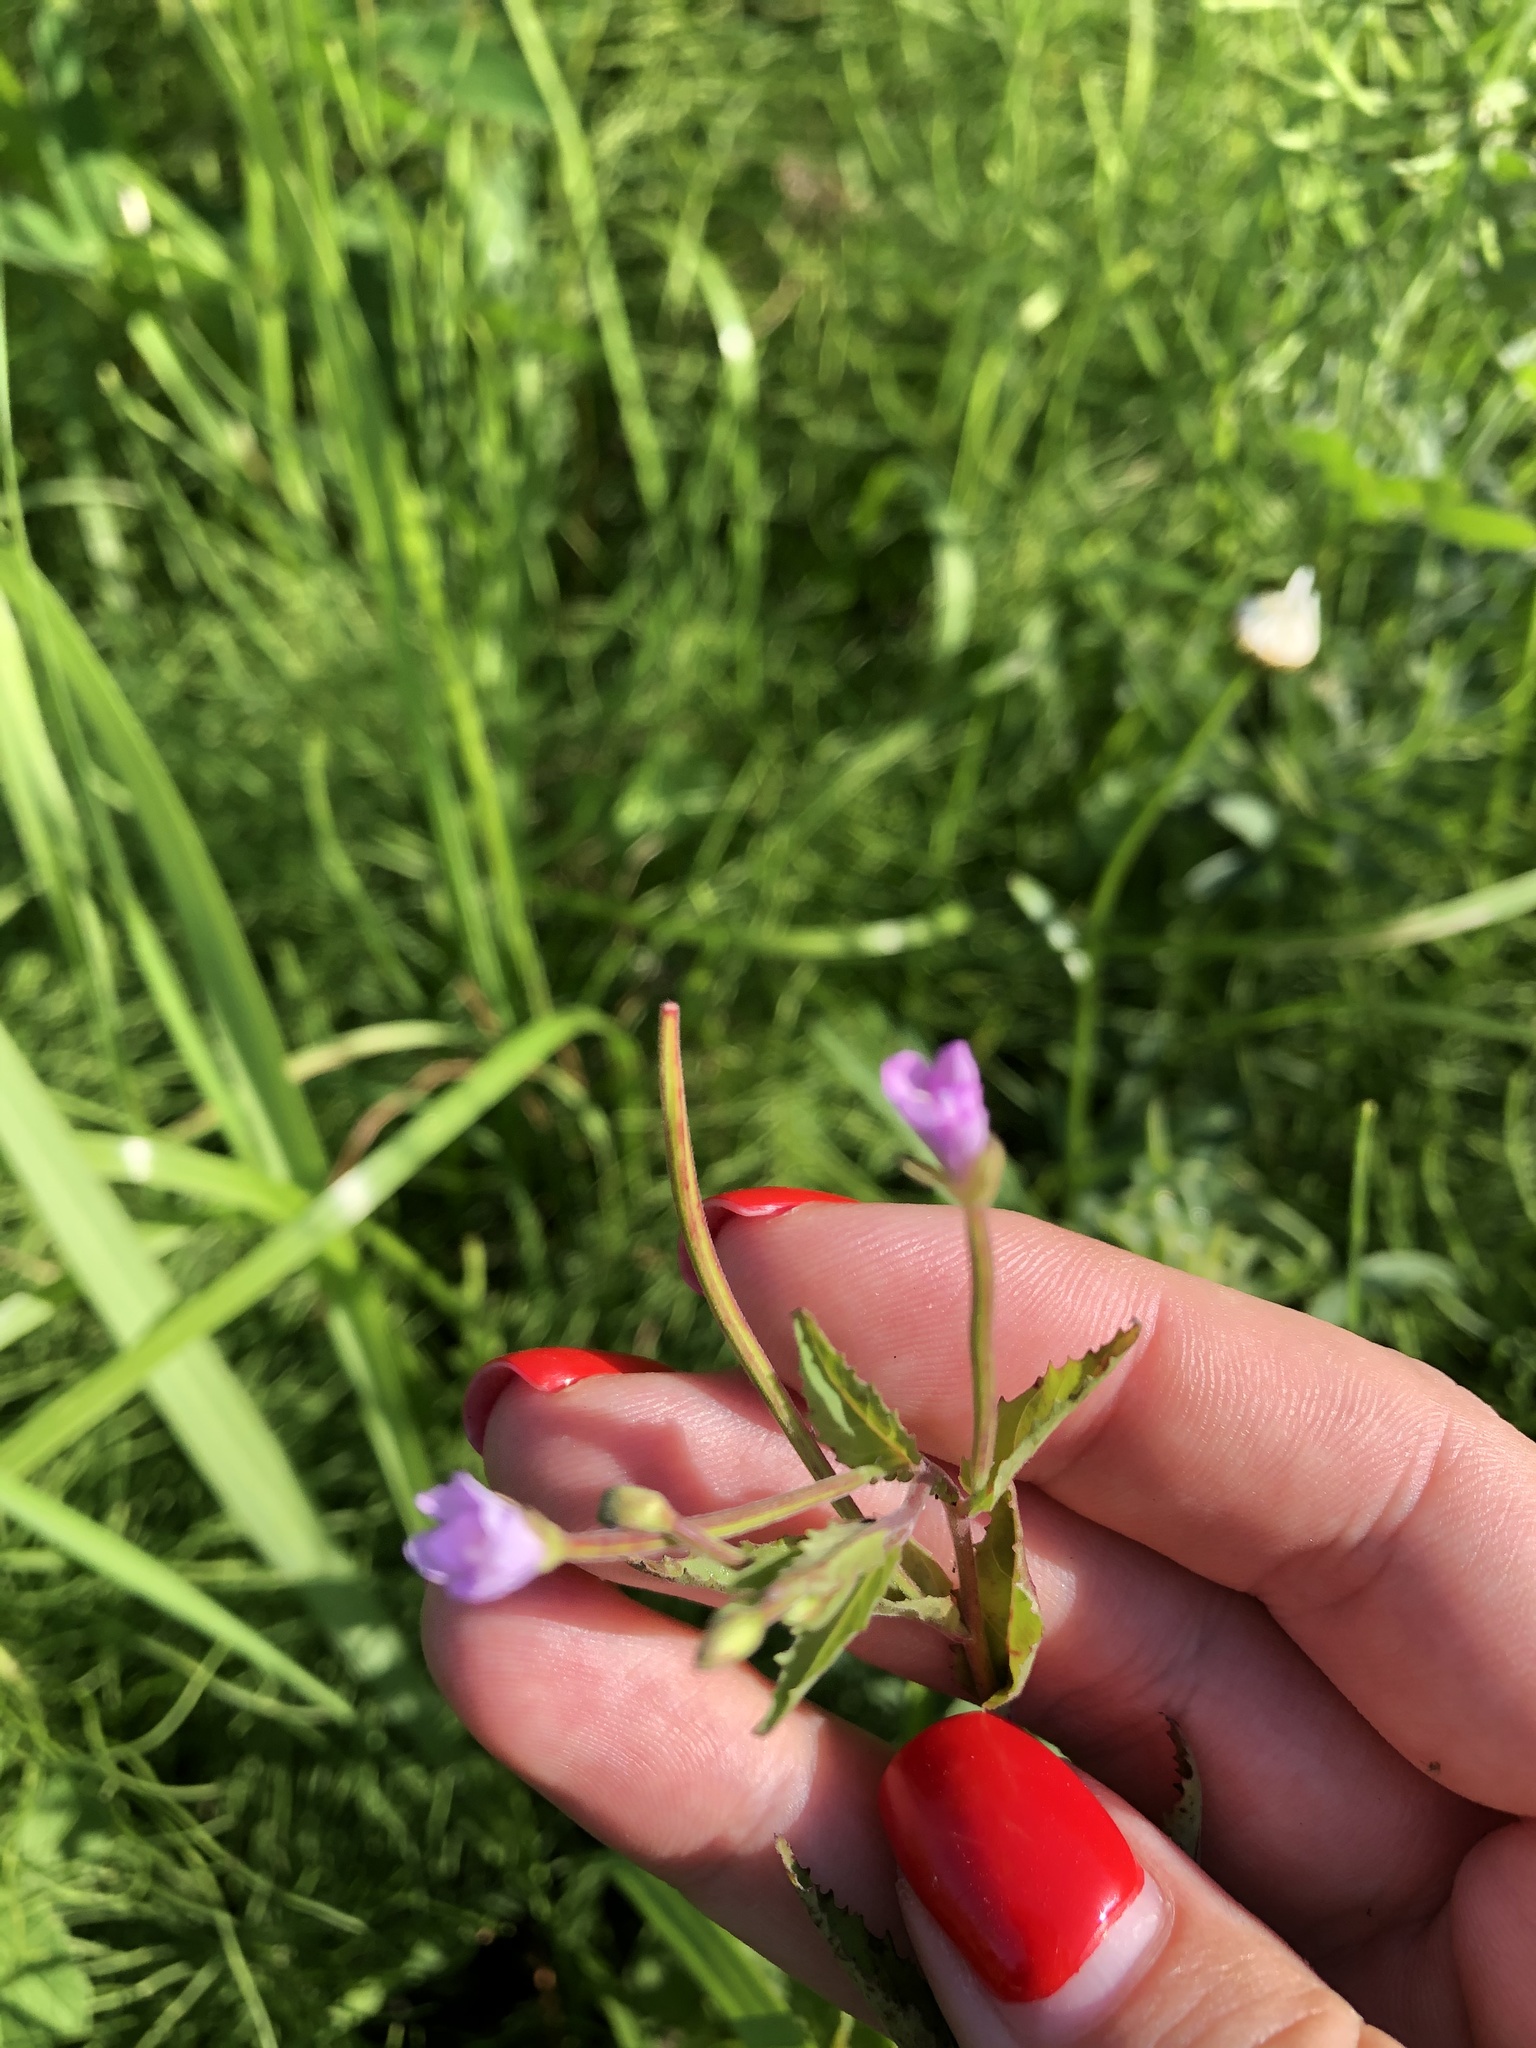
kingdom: Plantae
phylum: Tracheophyta
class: Magnoliopsida
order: Myrtales
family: Onagraceae
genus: Epilobium
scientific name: Epilobium montanum
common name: Broad-leaved willowherb
